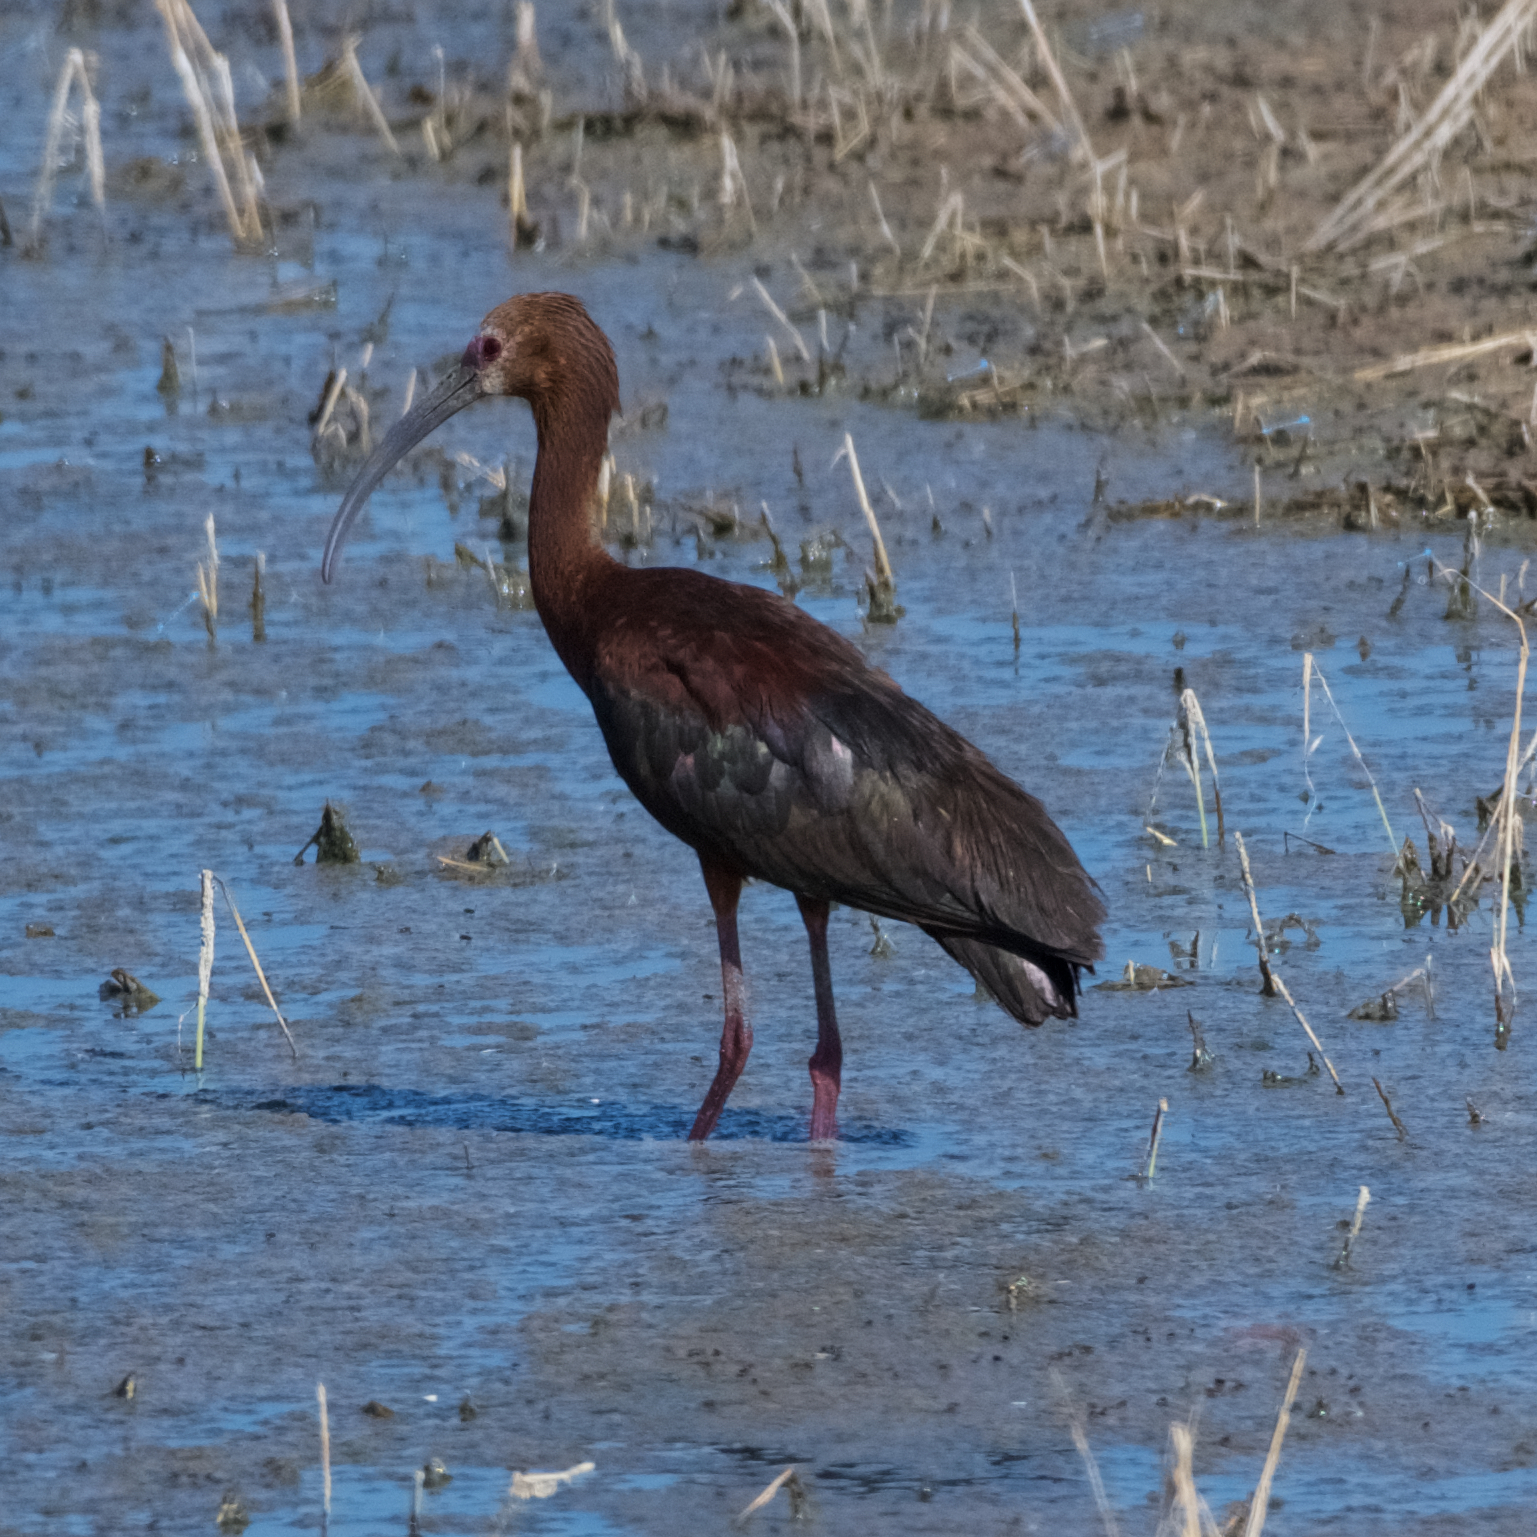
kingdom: Animalia
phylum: Chordata
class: Aves
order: Pelecaniformes
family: Threskiornithidae
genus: Plegadis
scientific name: Plegadis chihi
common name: White-faced ibis
